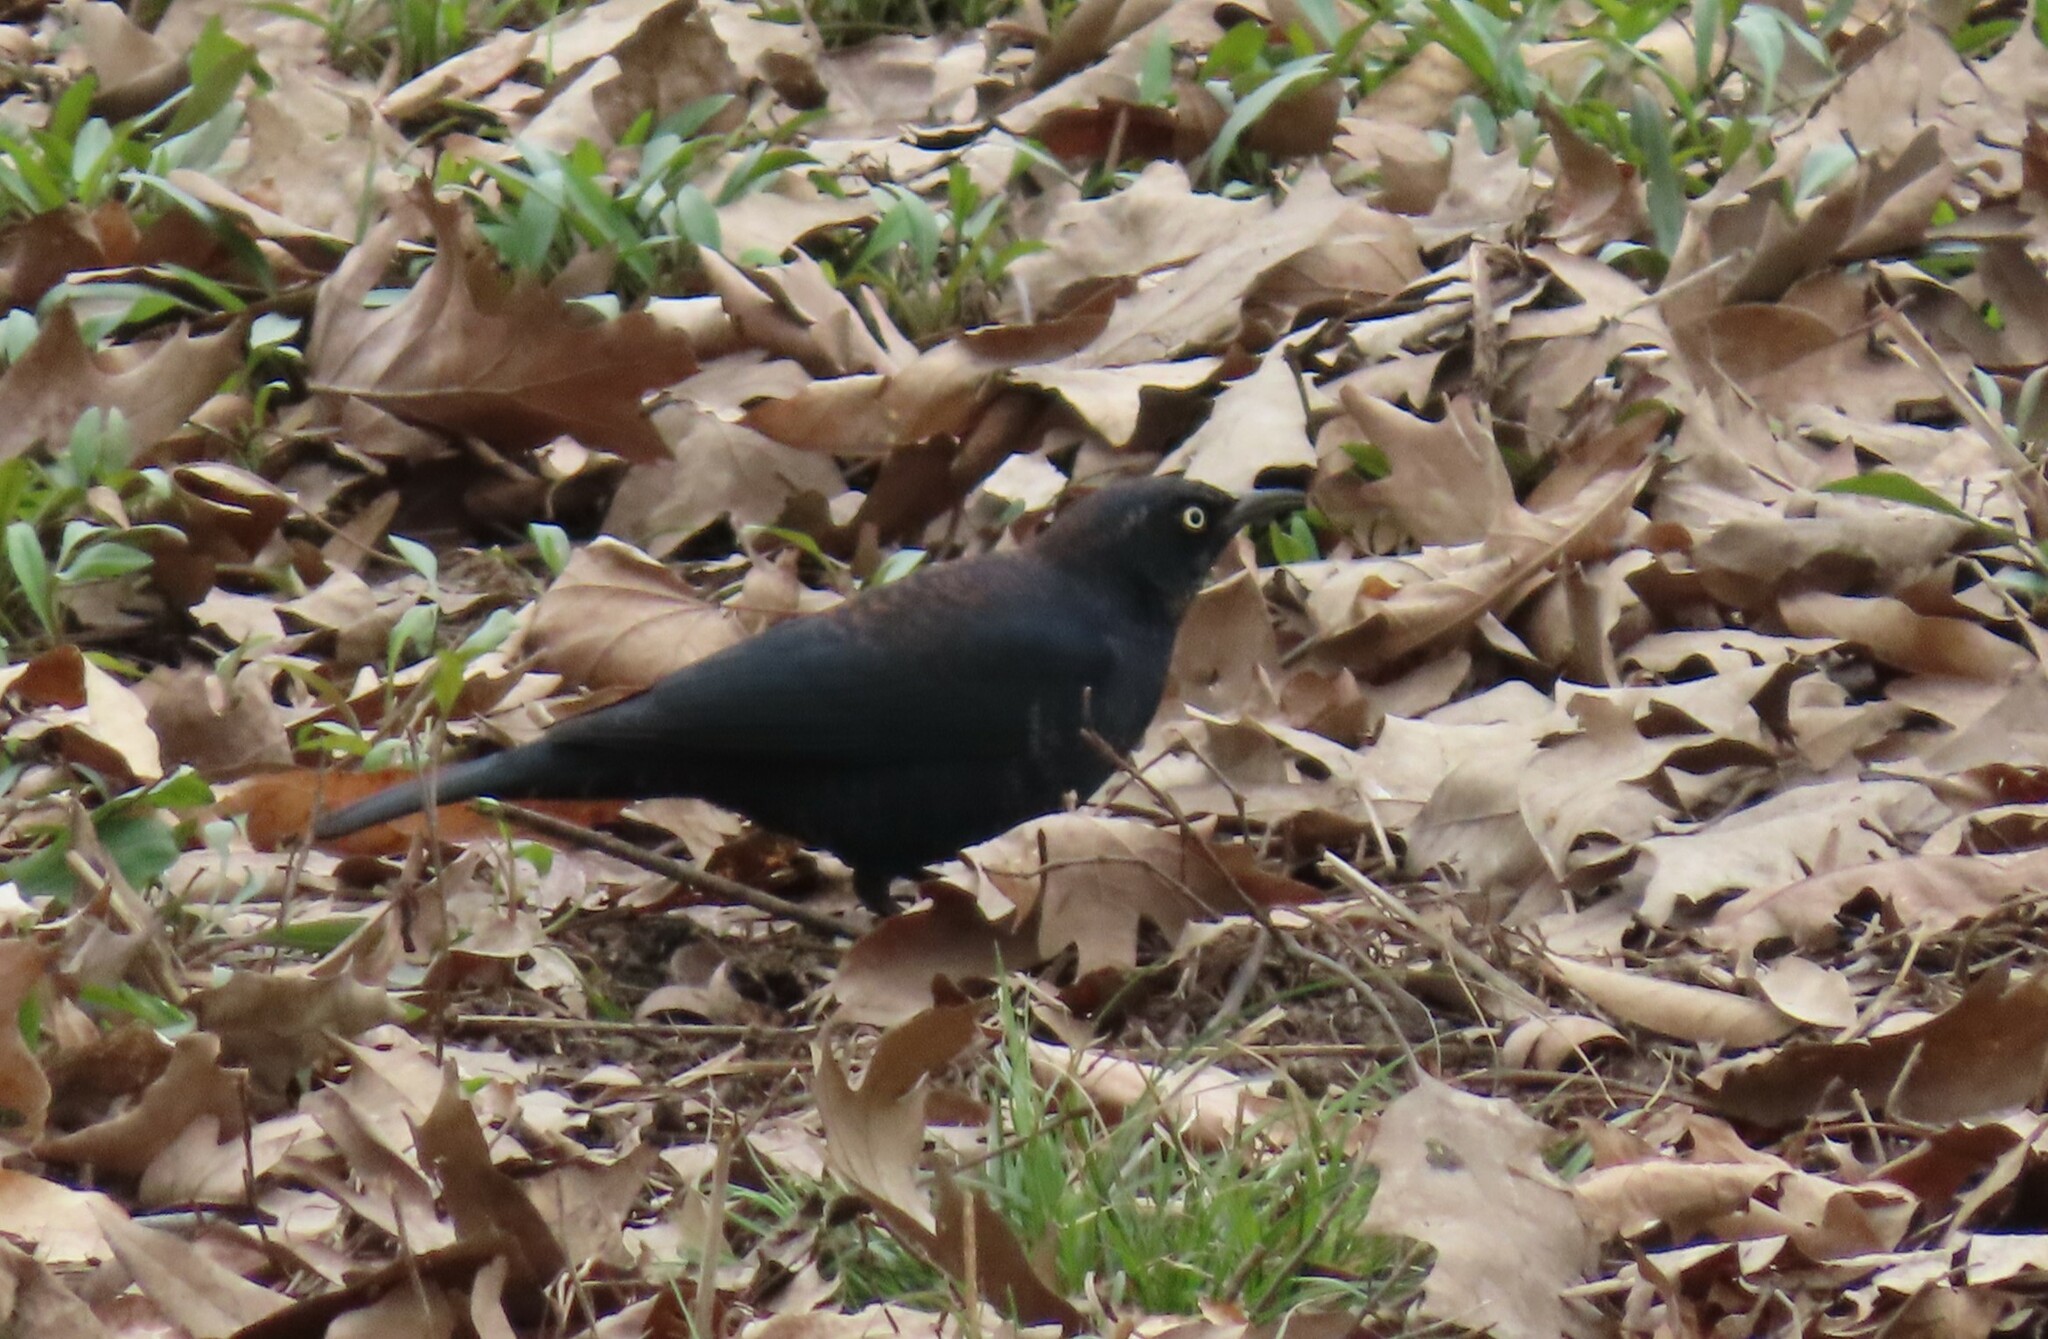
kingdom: Animalia
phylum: Chordata
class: Aves
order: Passeriformes
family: Icteridae
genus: Euphagus
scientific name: Euphagus carolinus
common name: Rusty blackbird
